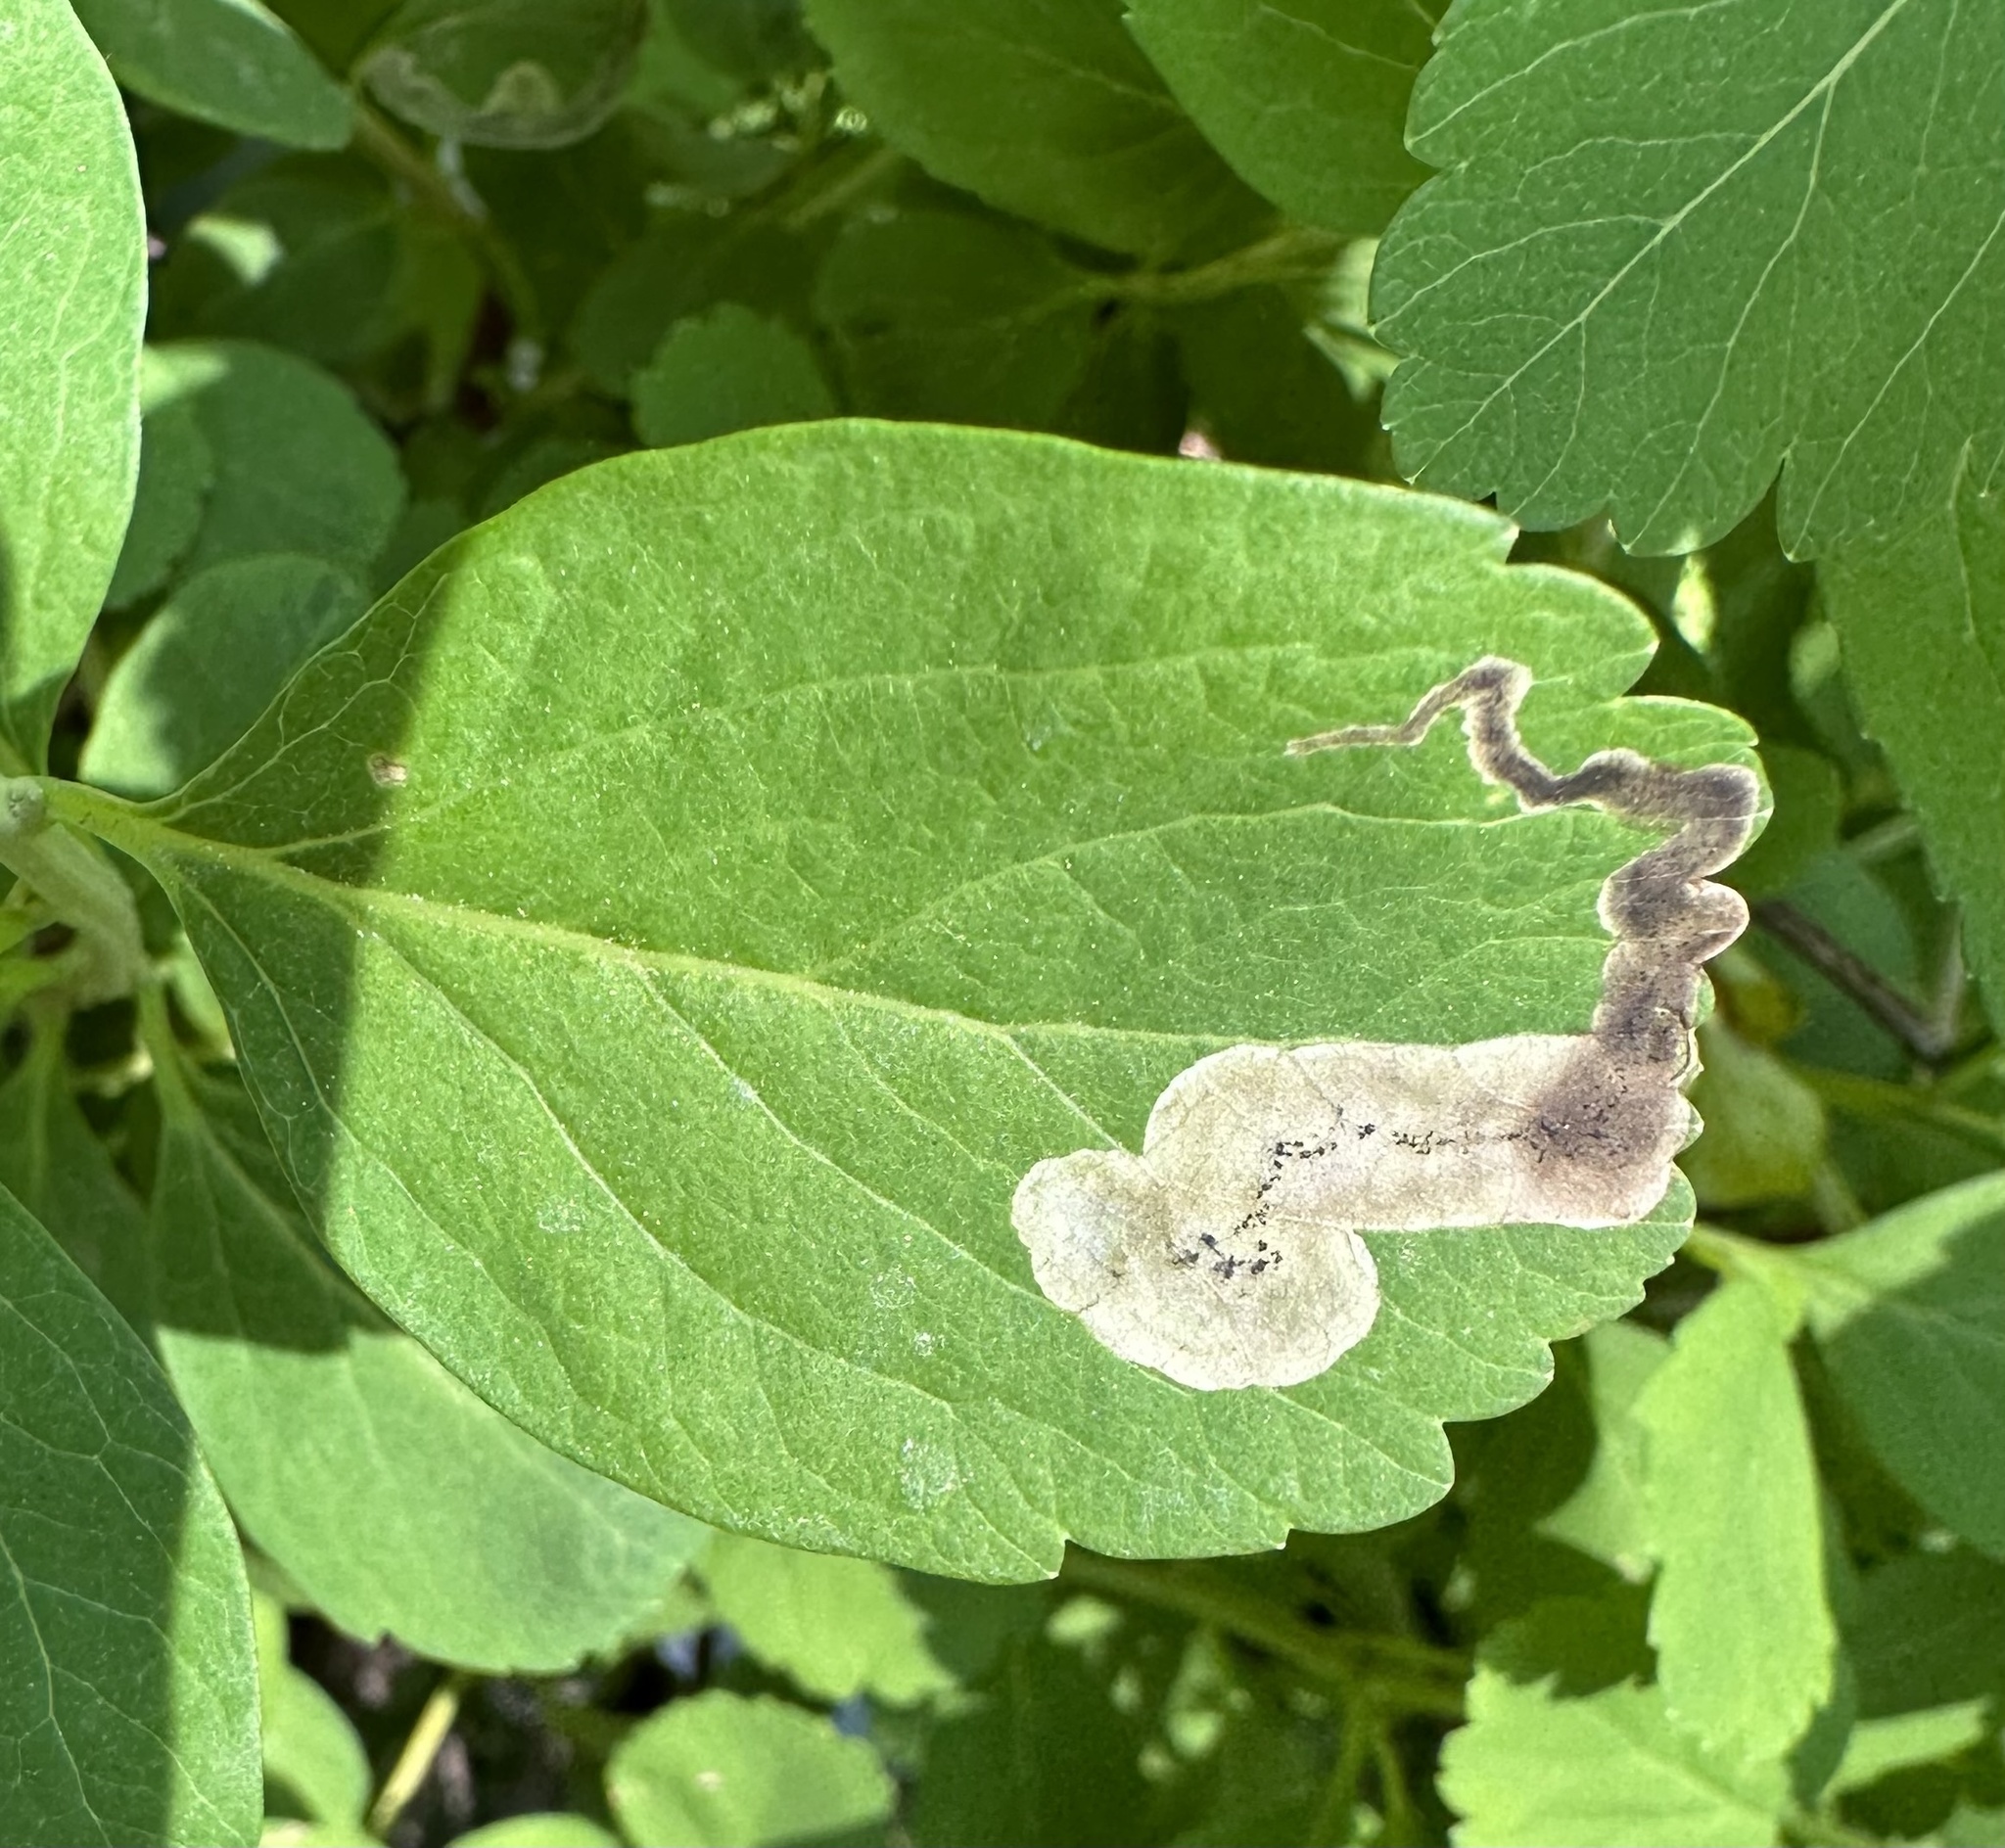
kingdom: Animalia
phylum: Arthropoda
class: Insecta
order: Diptera
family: Agromyzidae
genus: Agromyza
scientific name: Agromyza spiraeoidearum
